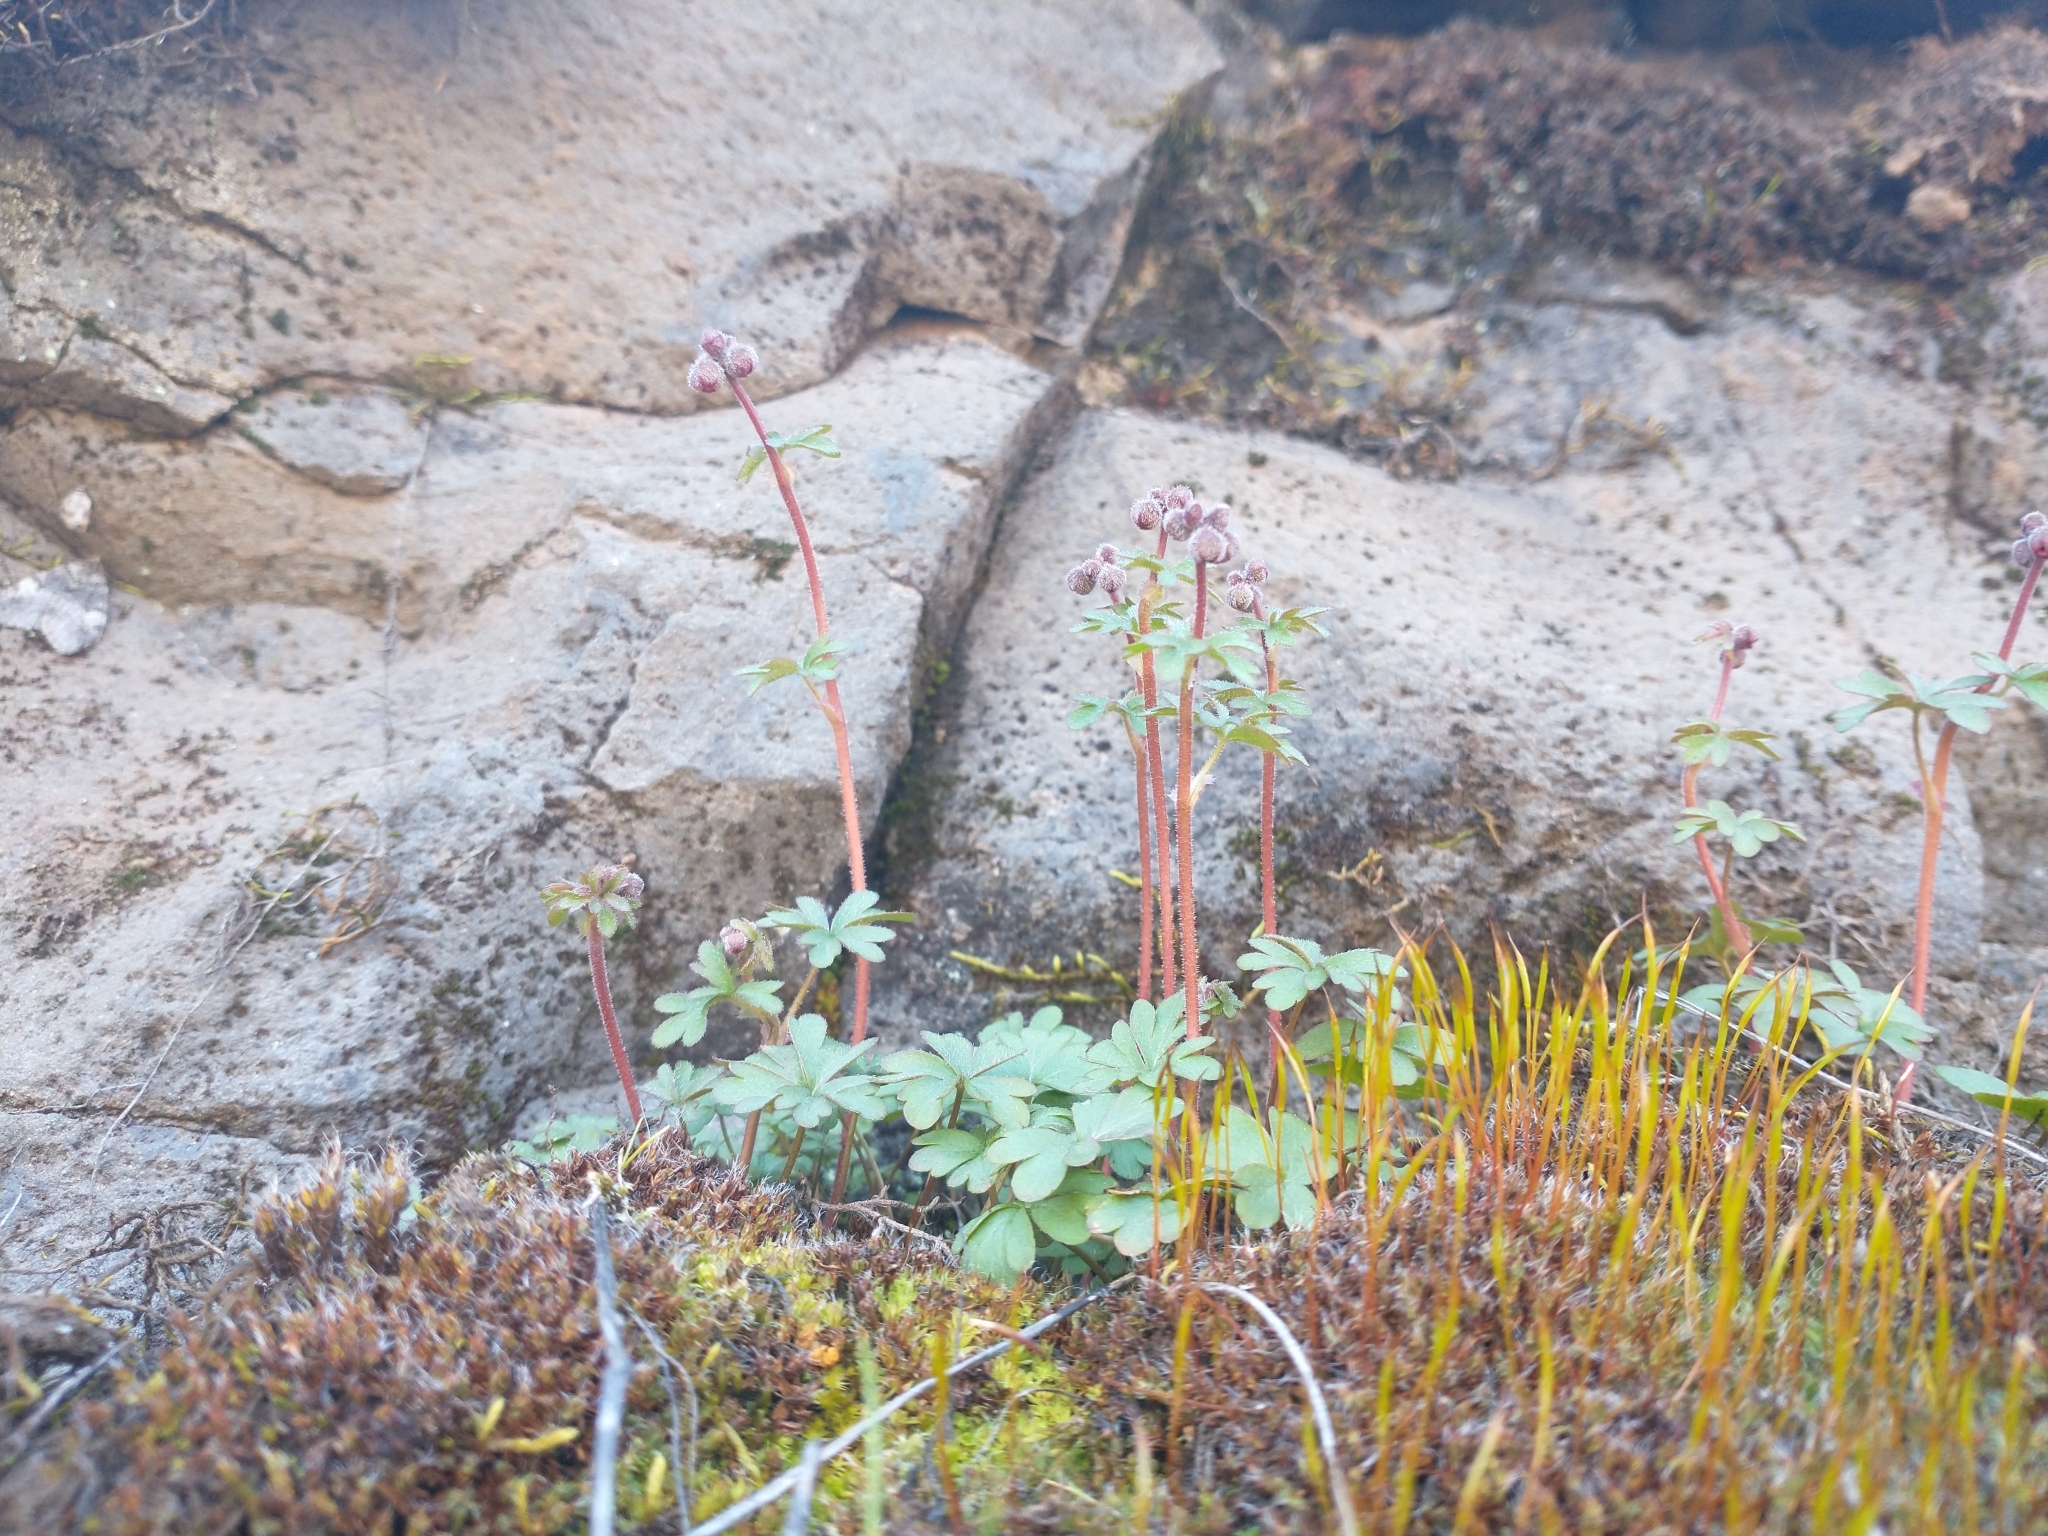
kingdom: Plantae
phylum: Tracheophyta
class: Magnoliopsida
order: Saxifragales
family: Saxifragaceae
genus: Lithophragma
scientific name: Lithophragma glabrum
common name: Bulbous prairie-star
